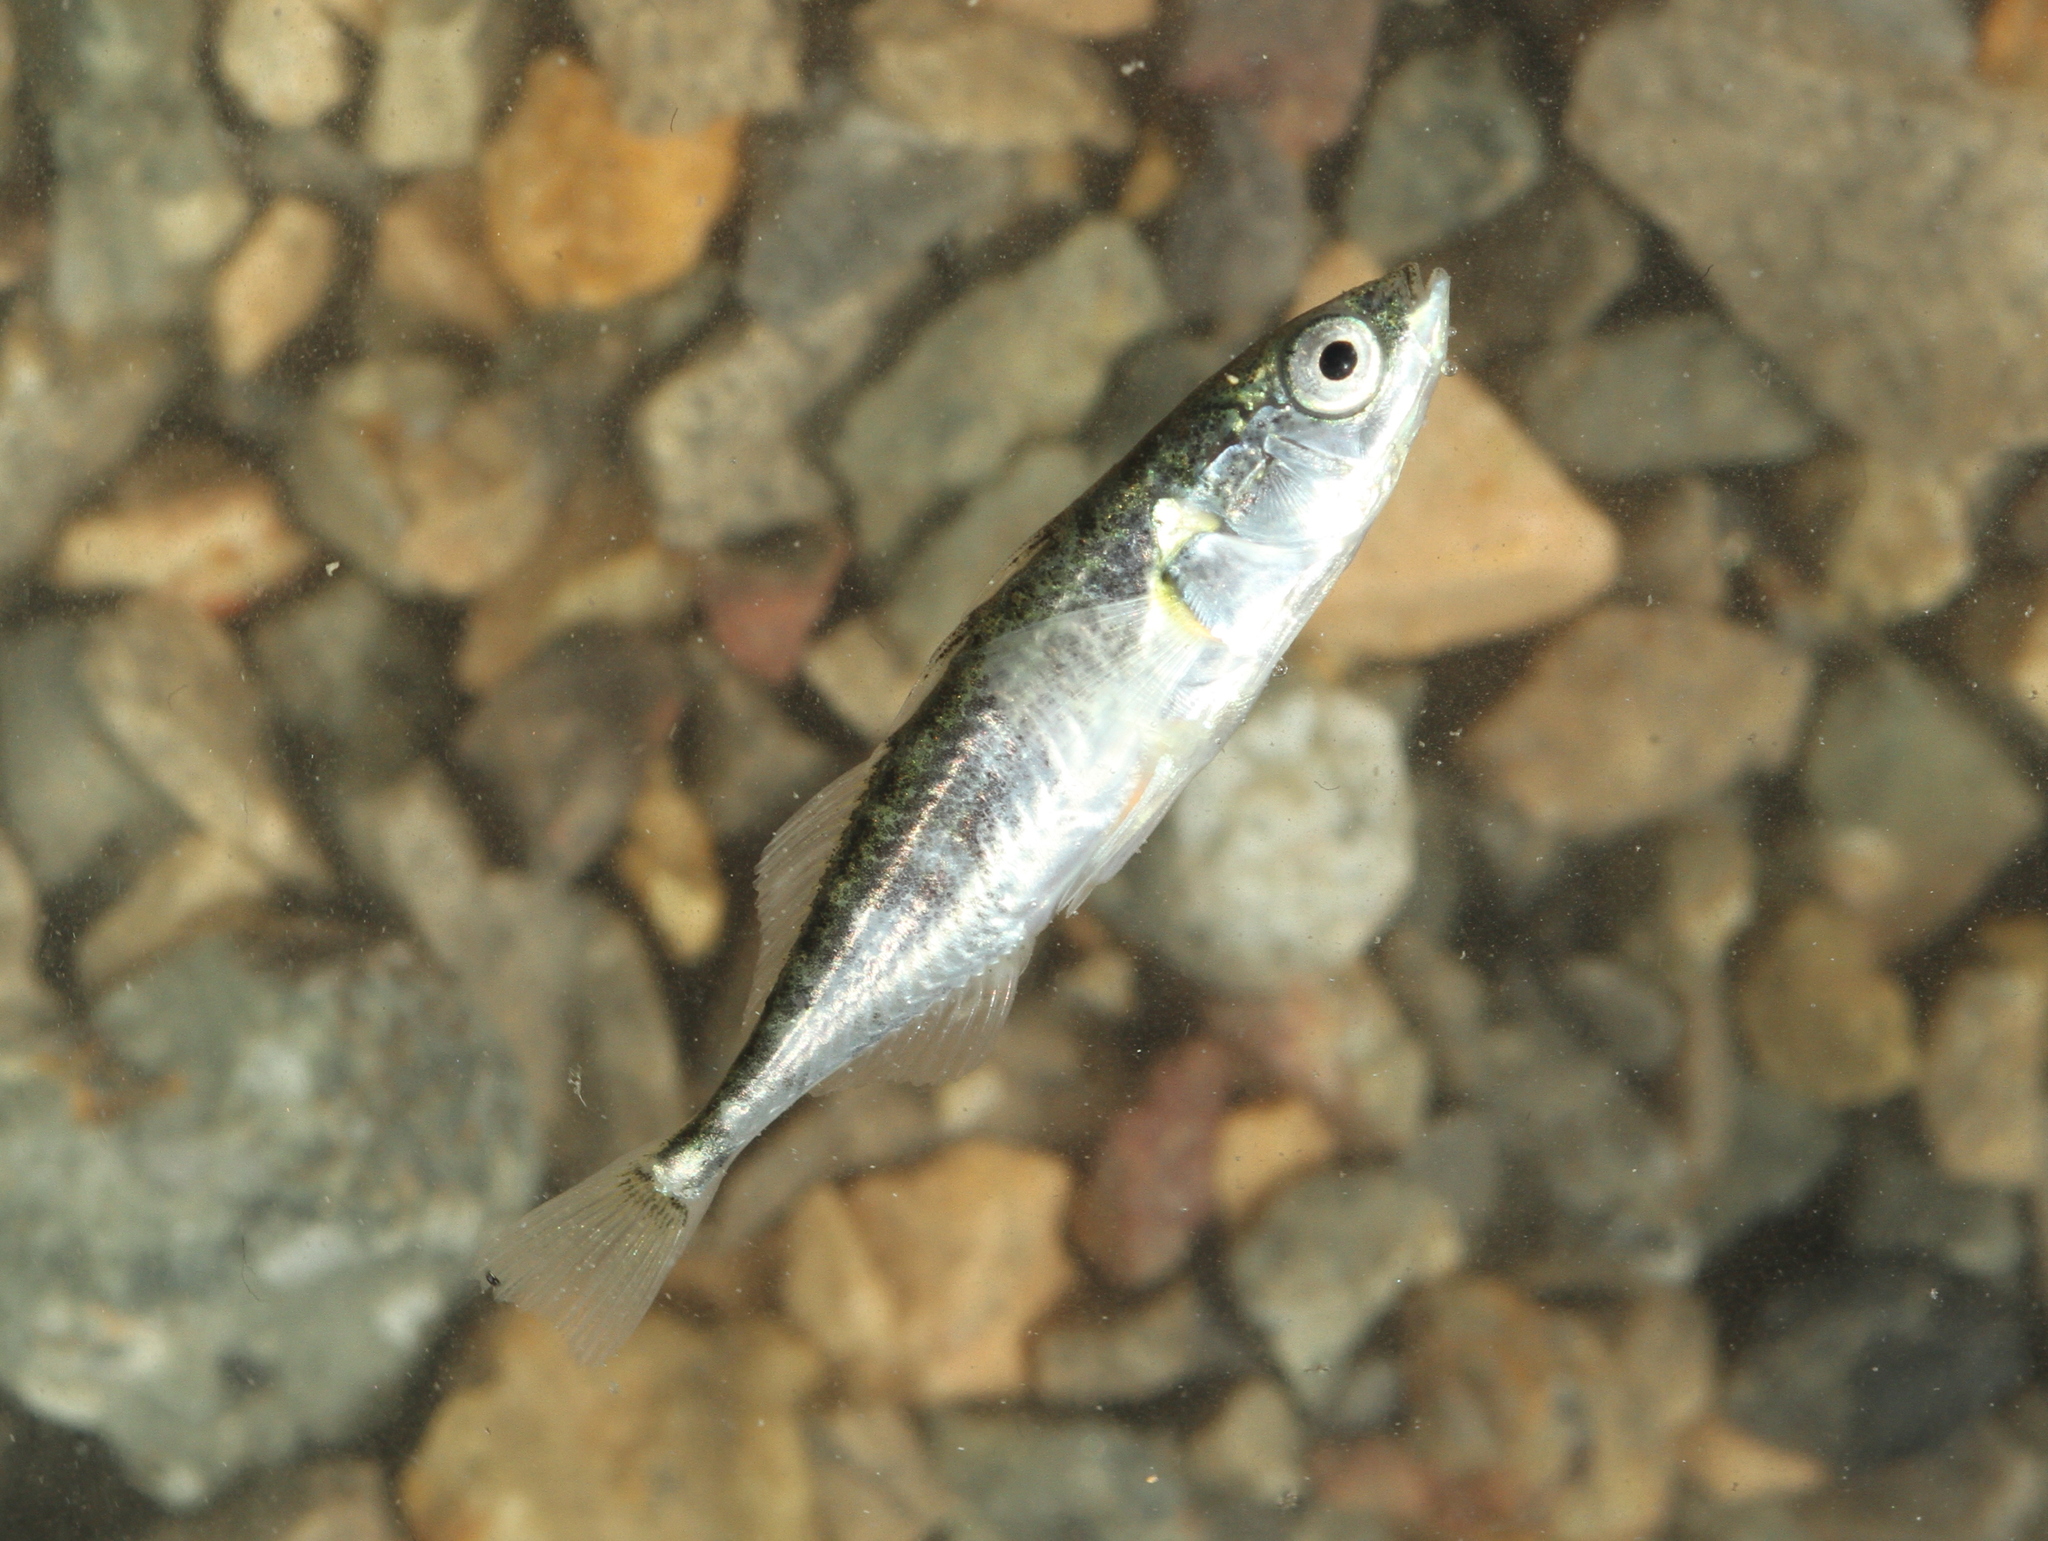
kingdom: Animalia
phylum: Chordata
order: Gasterosteiformes
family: Gasterosteidae
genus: Gasterosteus
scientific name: Gasterosteus aculeatus
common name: Three-spined stickleback
